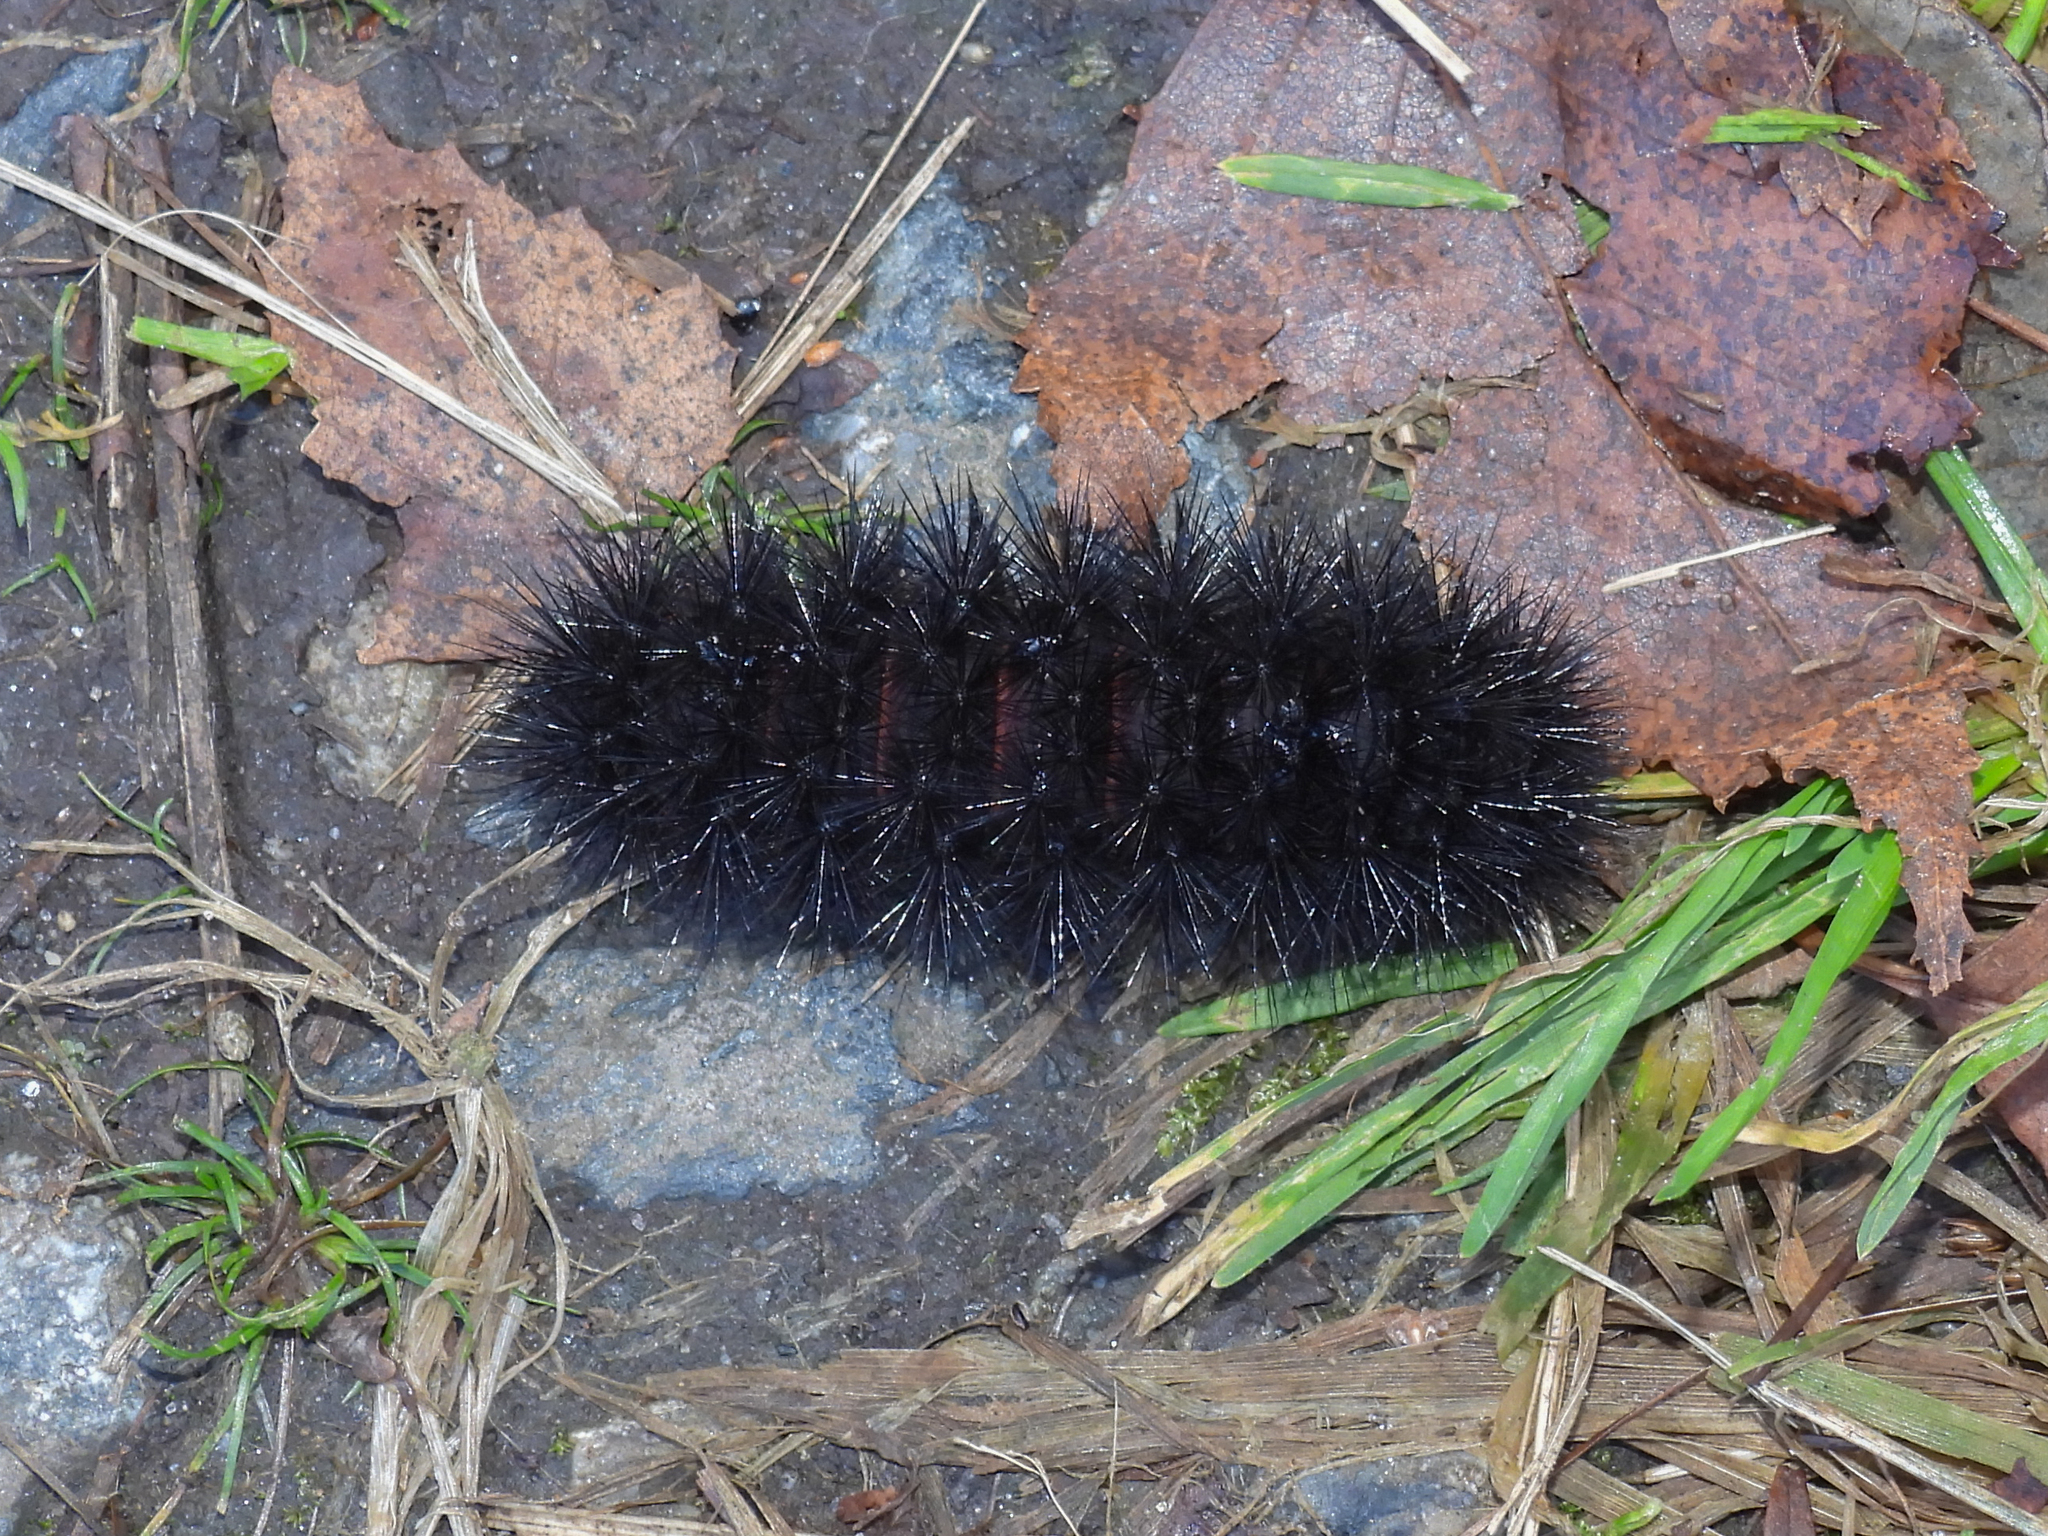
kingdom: Animalia
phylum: Arthropoda
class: Insecta
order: Lepidoptera
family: Erebidae
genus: Hypercompe
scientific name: Hypercompe scribonia
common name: Giant leopard moth
